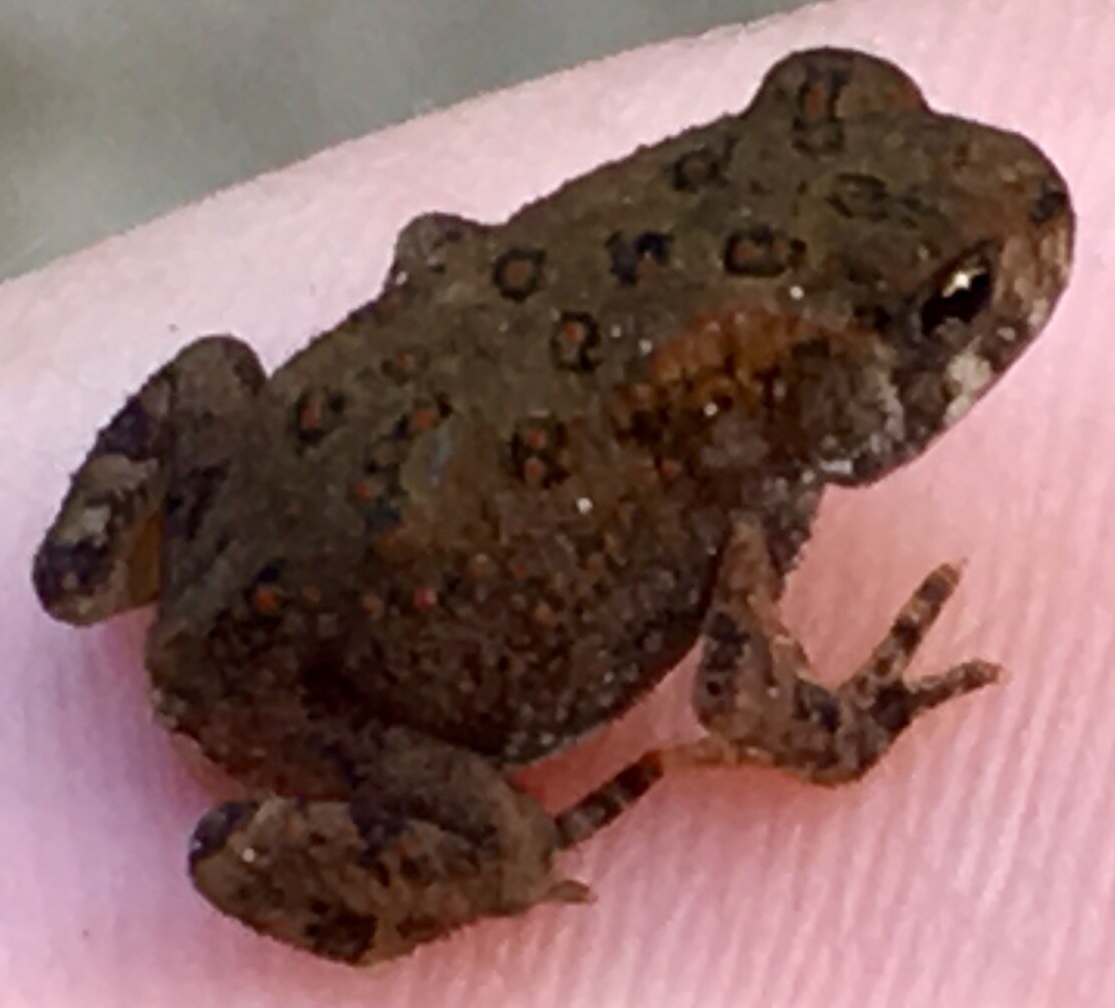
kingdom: Animalia
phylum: Chordata
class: Amphibia
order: Anura
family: Bufonidae
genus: Anaxyrus
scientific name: Anaxyrus americanus
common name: American toad
